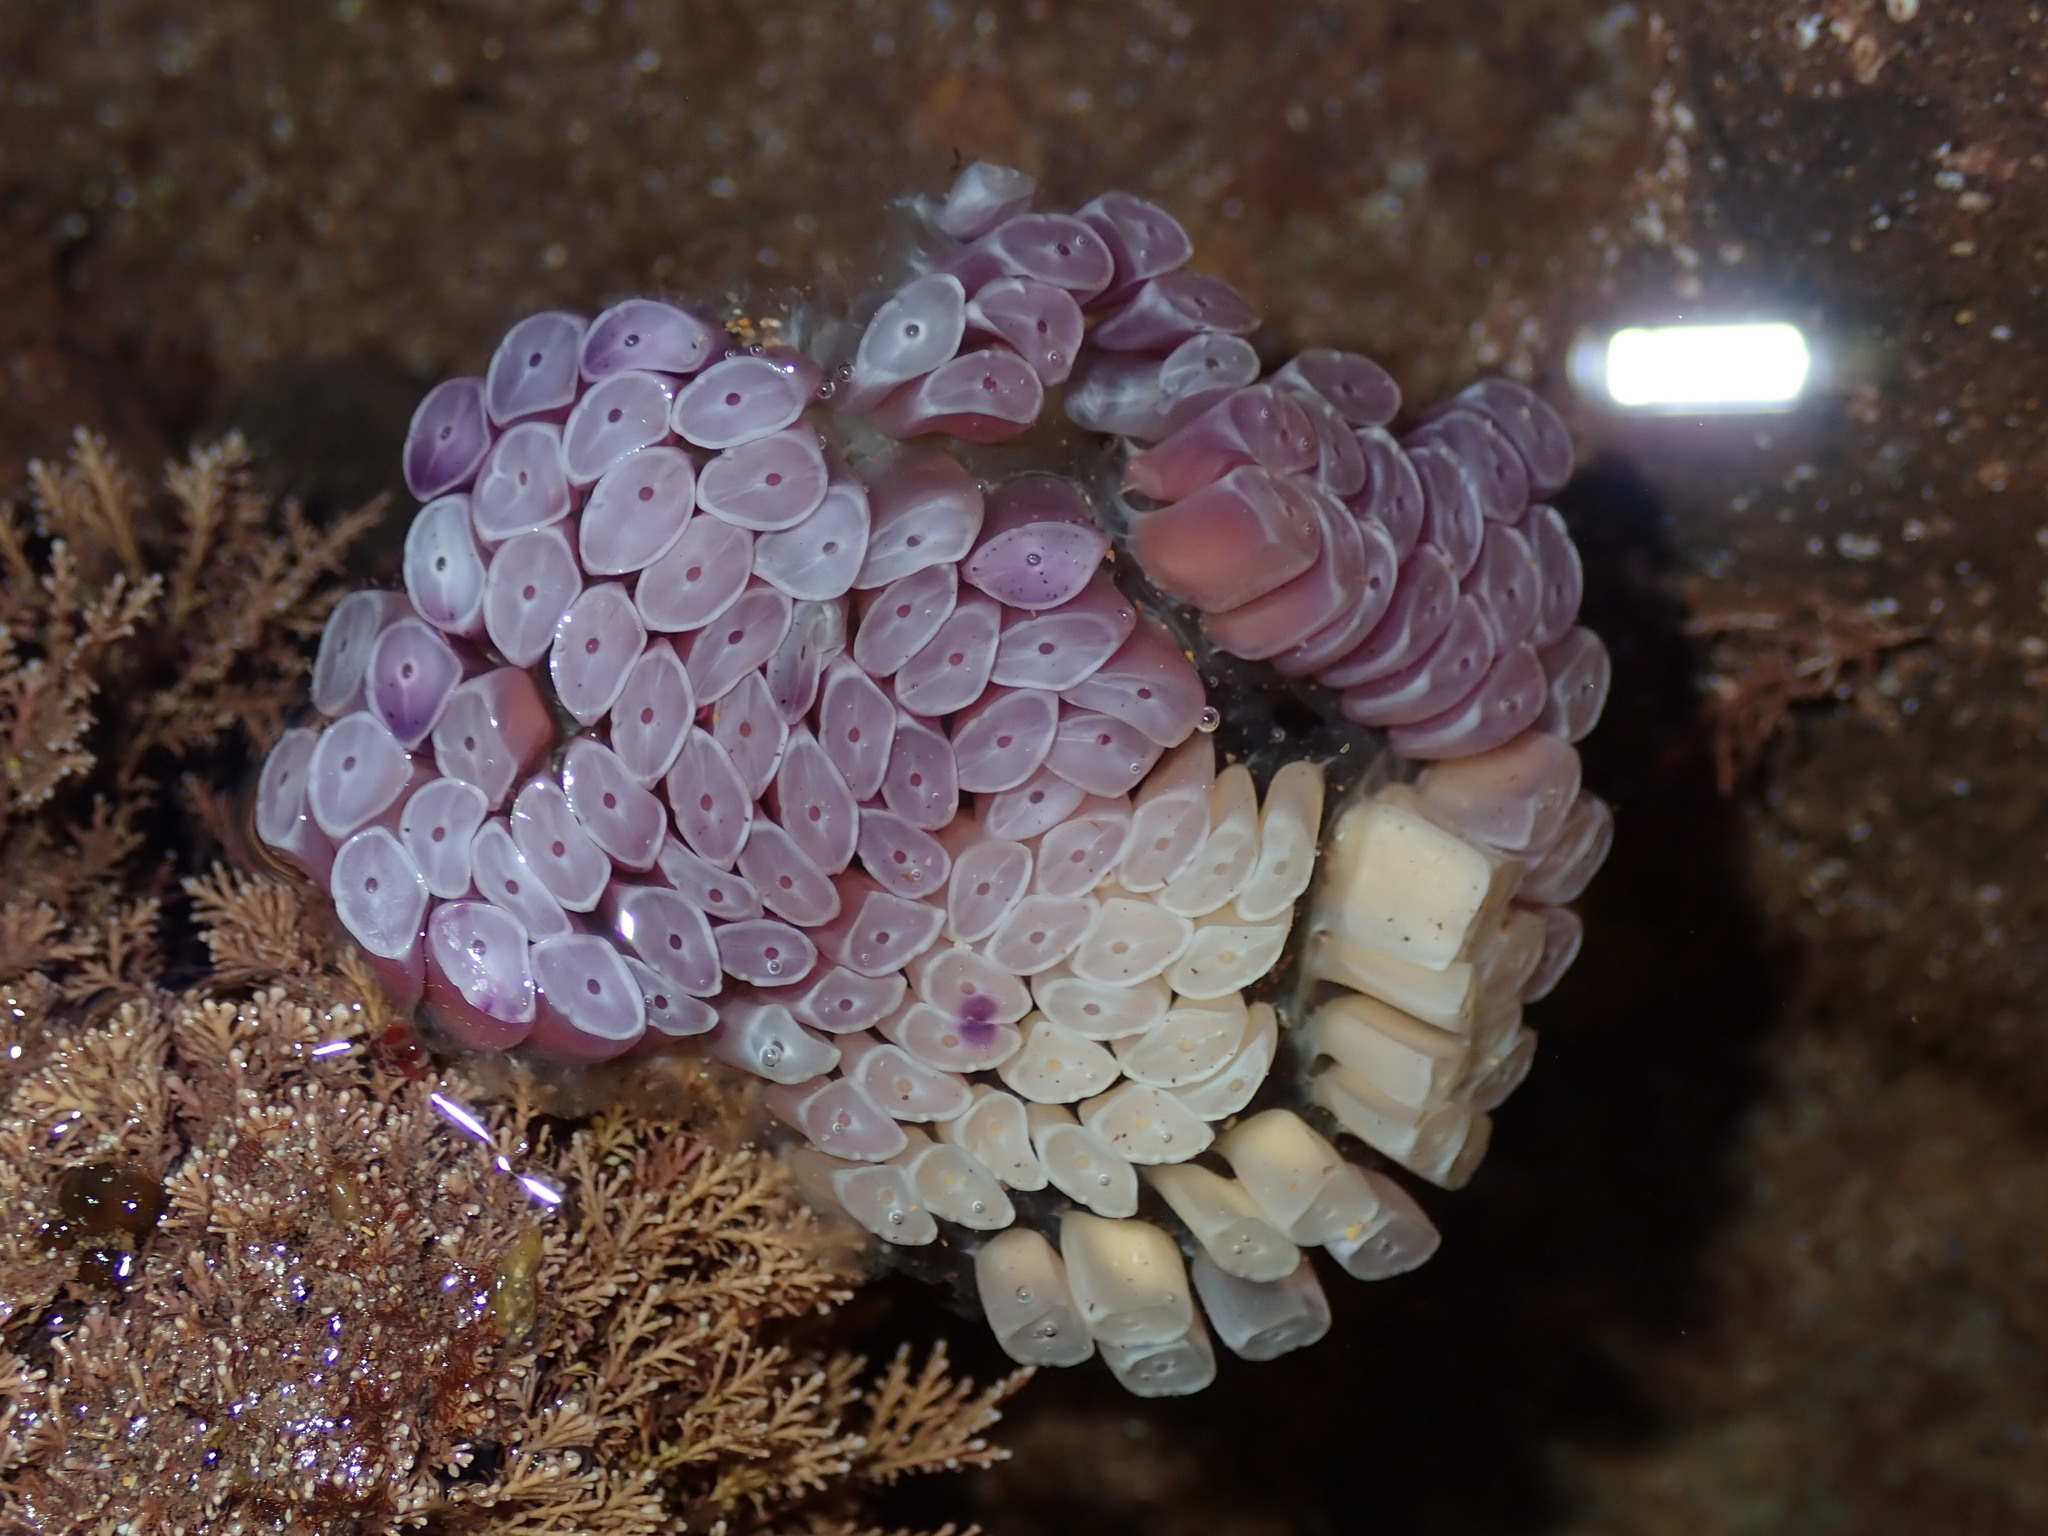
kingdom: Animalia
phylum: Mollusca
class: Gastropoda
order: Neogastropoda
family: Muricidae
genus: Dicathais
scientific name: Dicathais orbita
